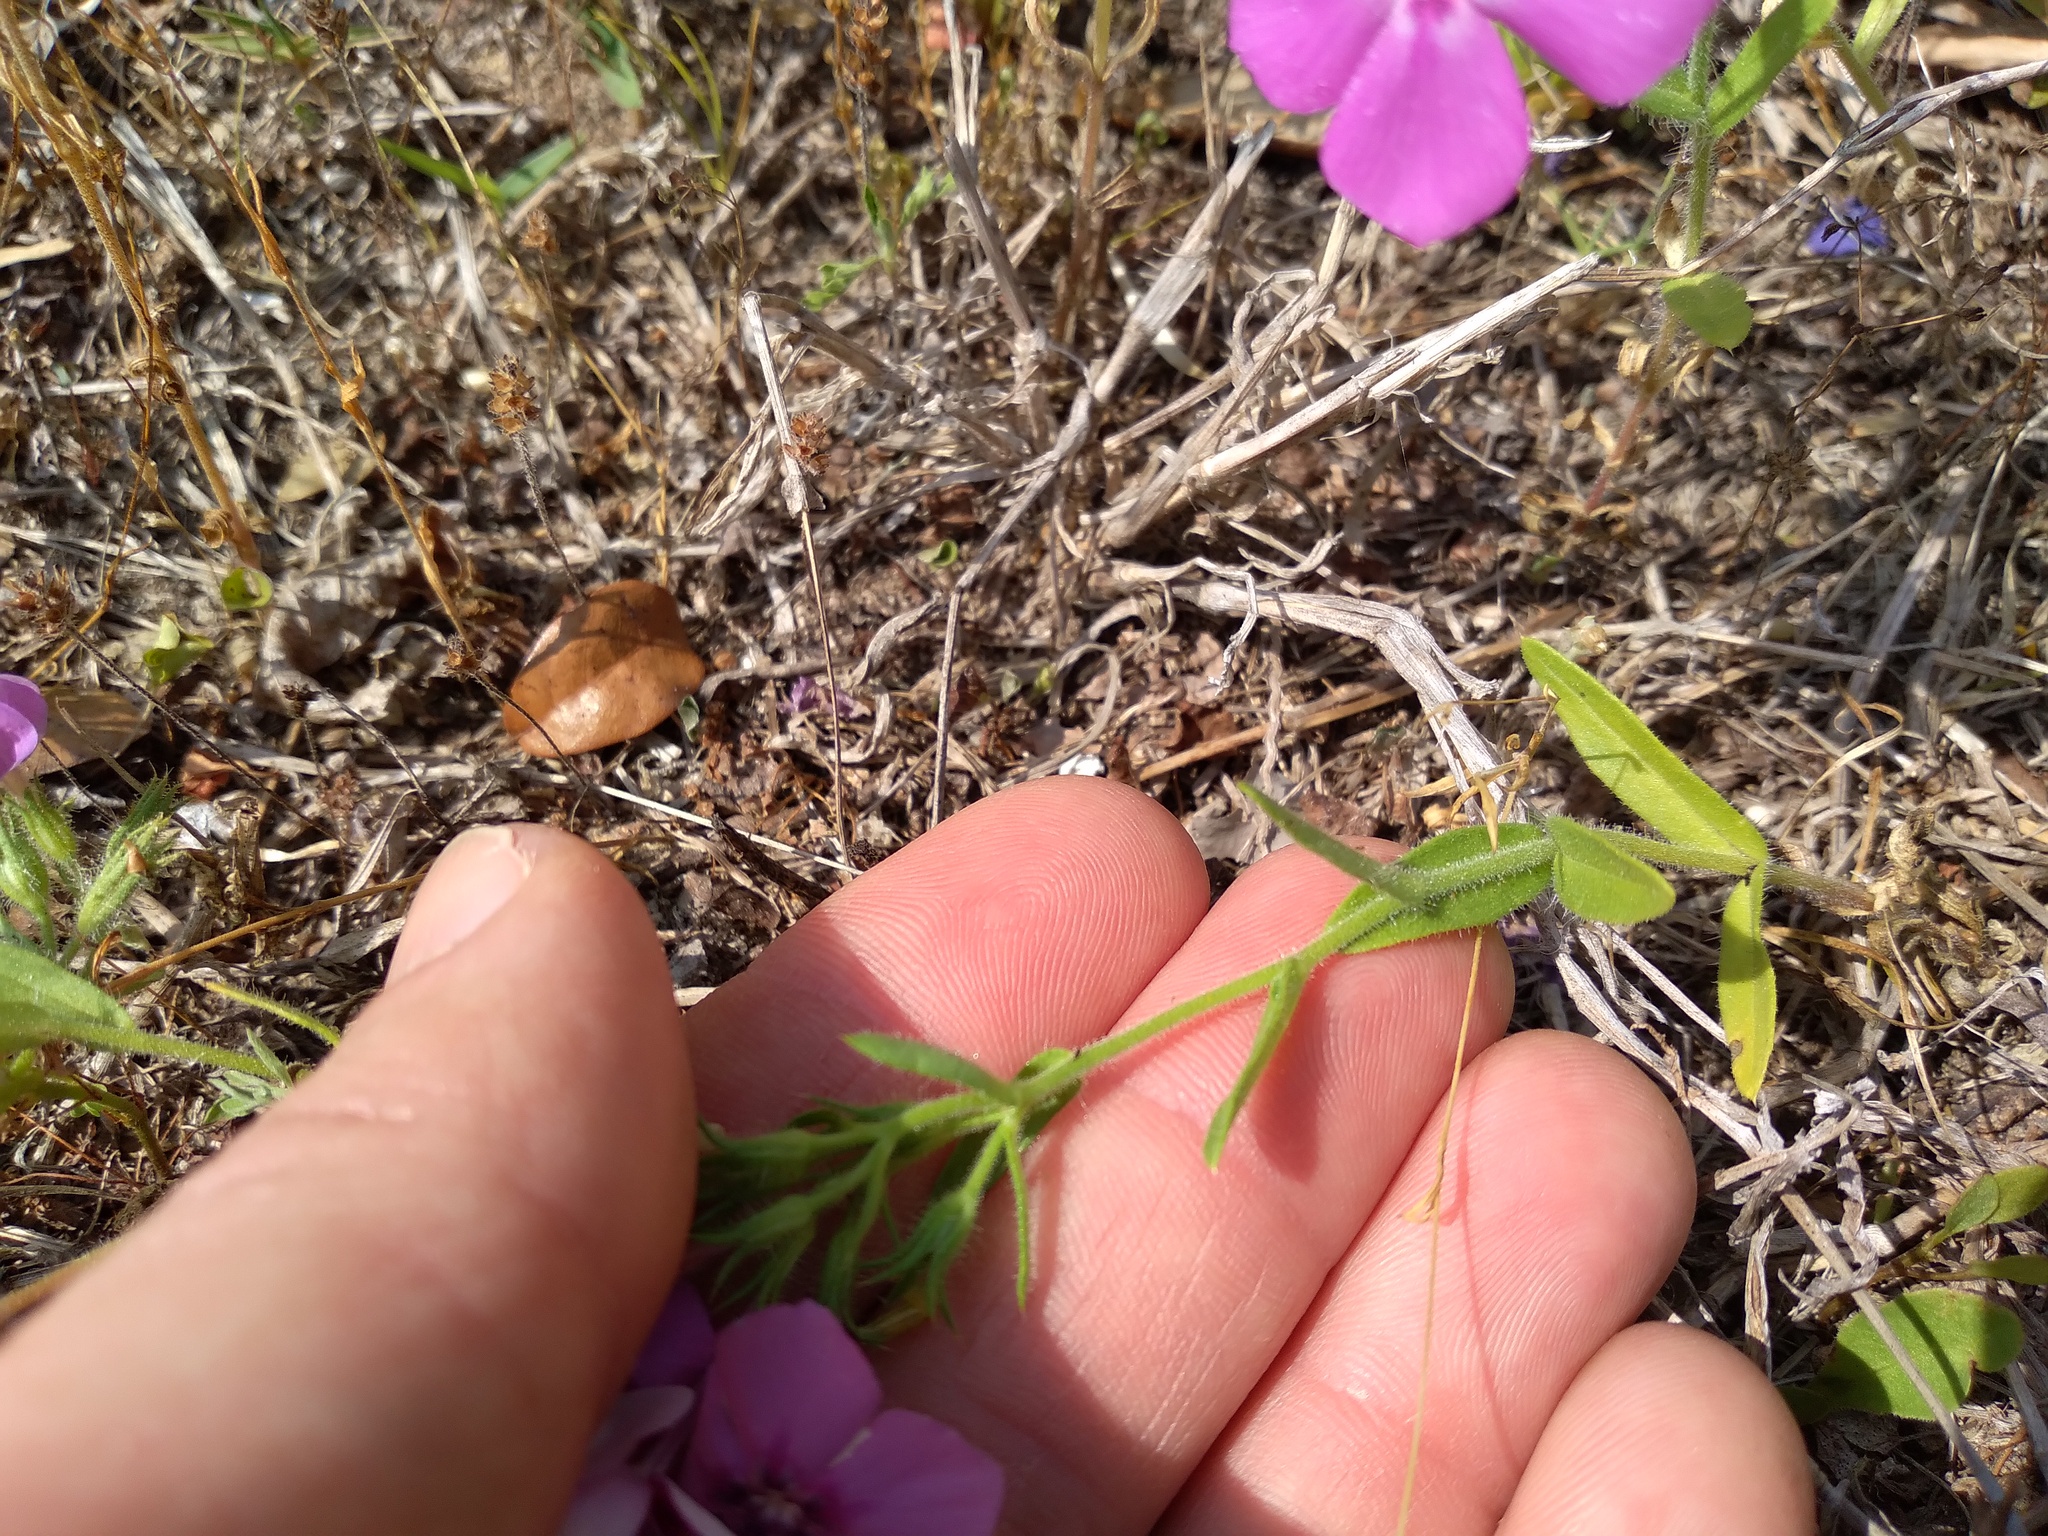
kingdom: Plantae
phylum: Tracheophyta
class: Magnoliopsida
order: Ericales
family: Polemoniaceae
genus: Phlox
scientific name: Phlox drummondii
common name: Drummond's phlox
